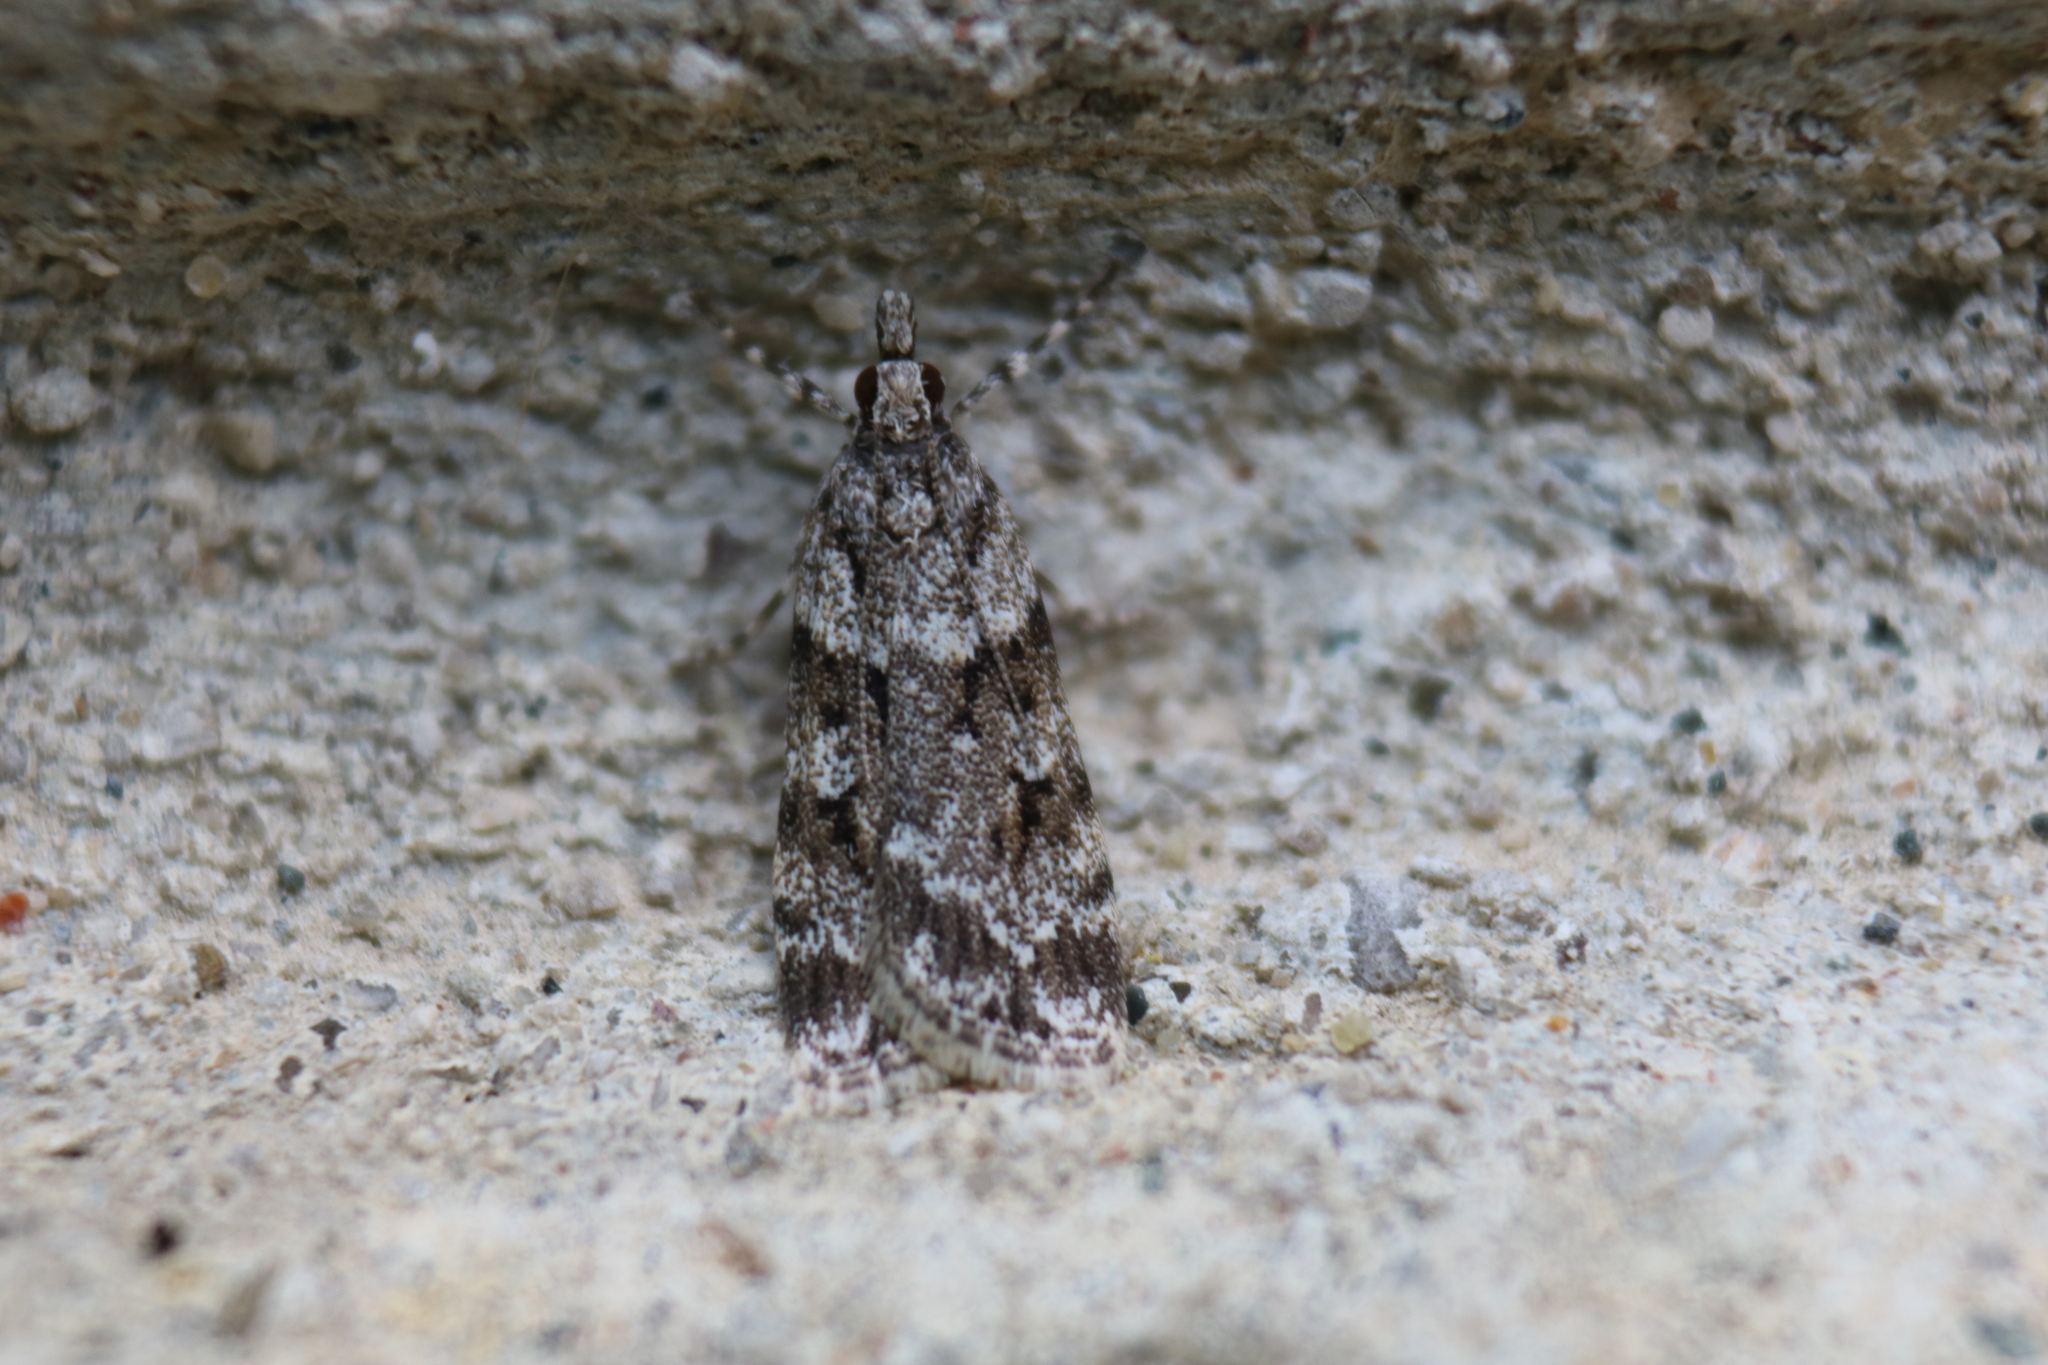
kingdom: Animalia
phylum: Arthropoda
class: Insecta
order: Lepidoptera
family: Crambidae
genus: Scoparia
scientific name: Scoparia biplagialis
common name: Double-striped scoparia moth
